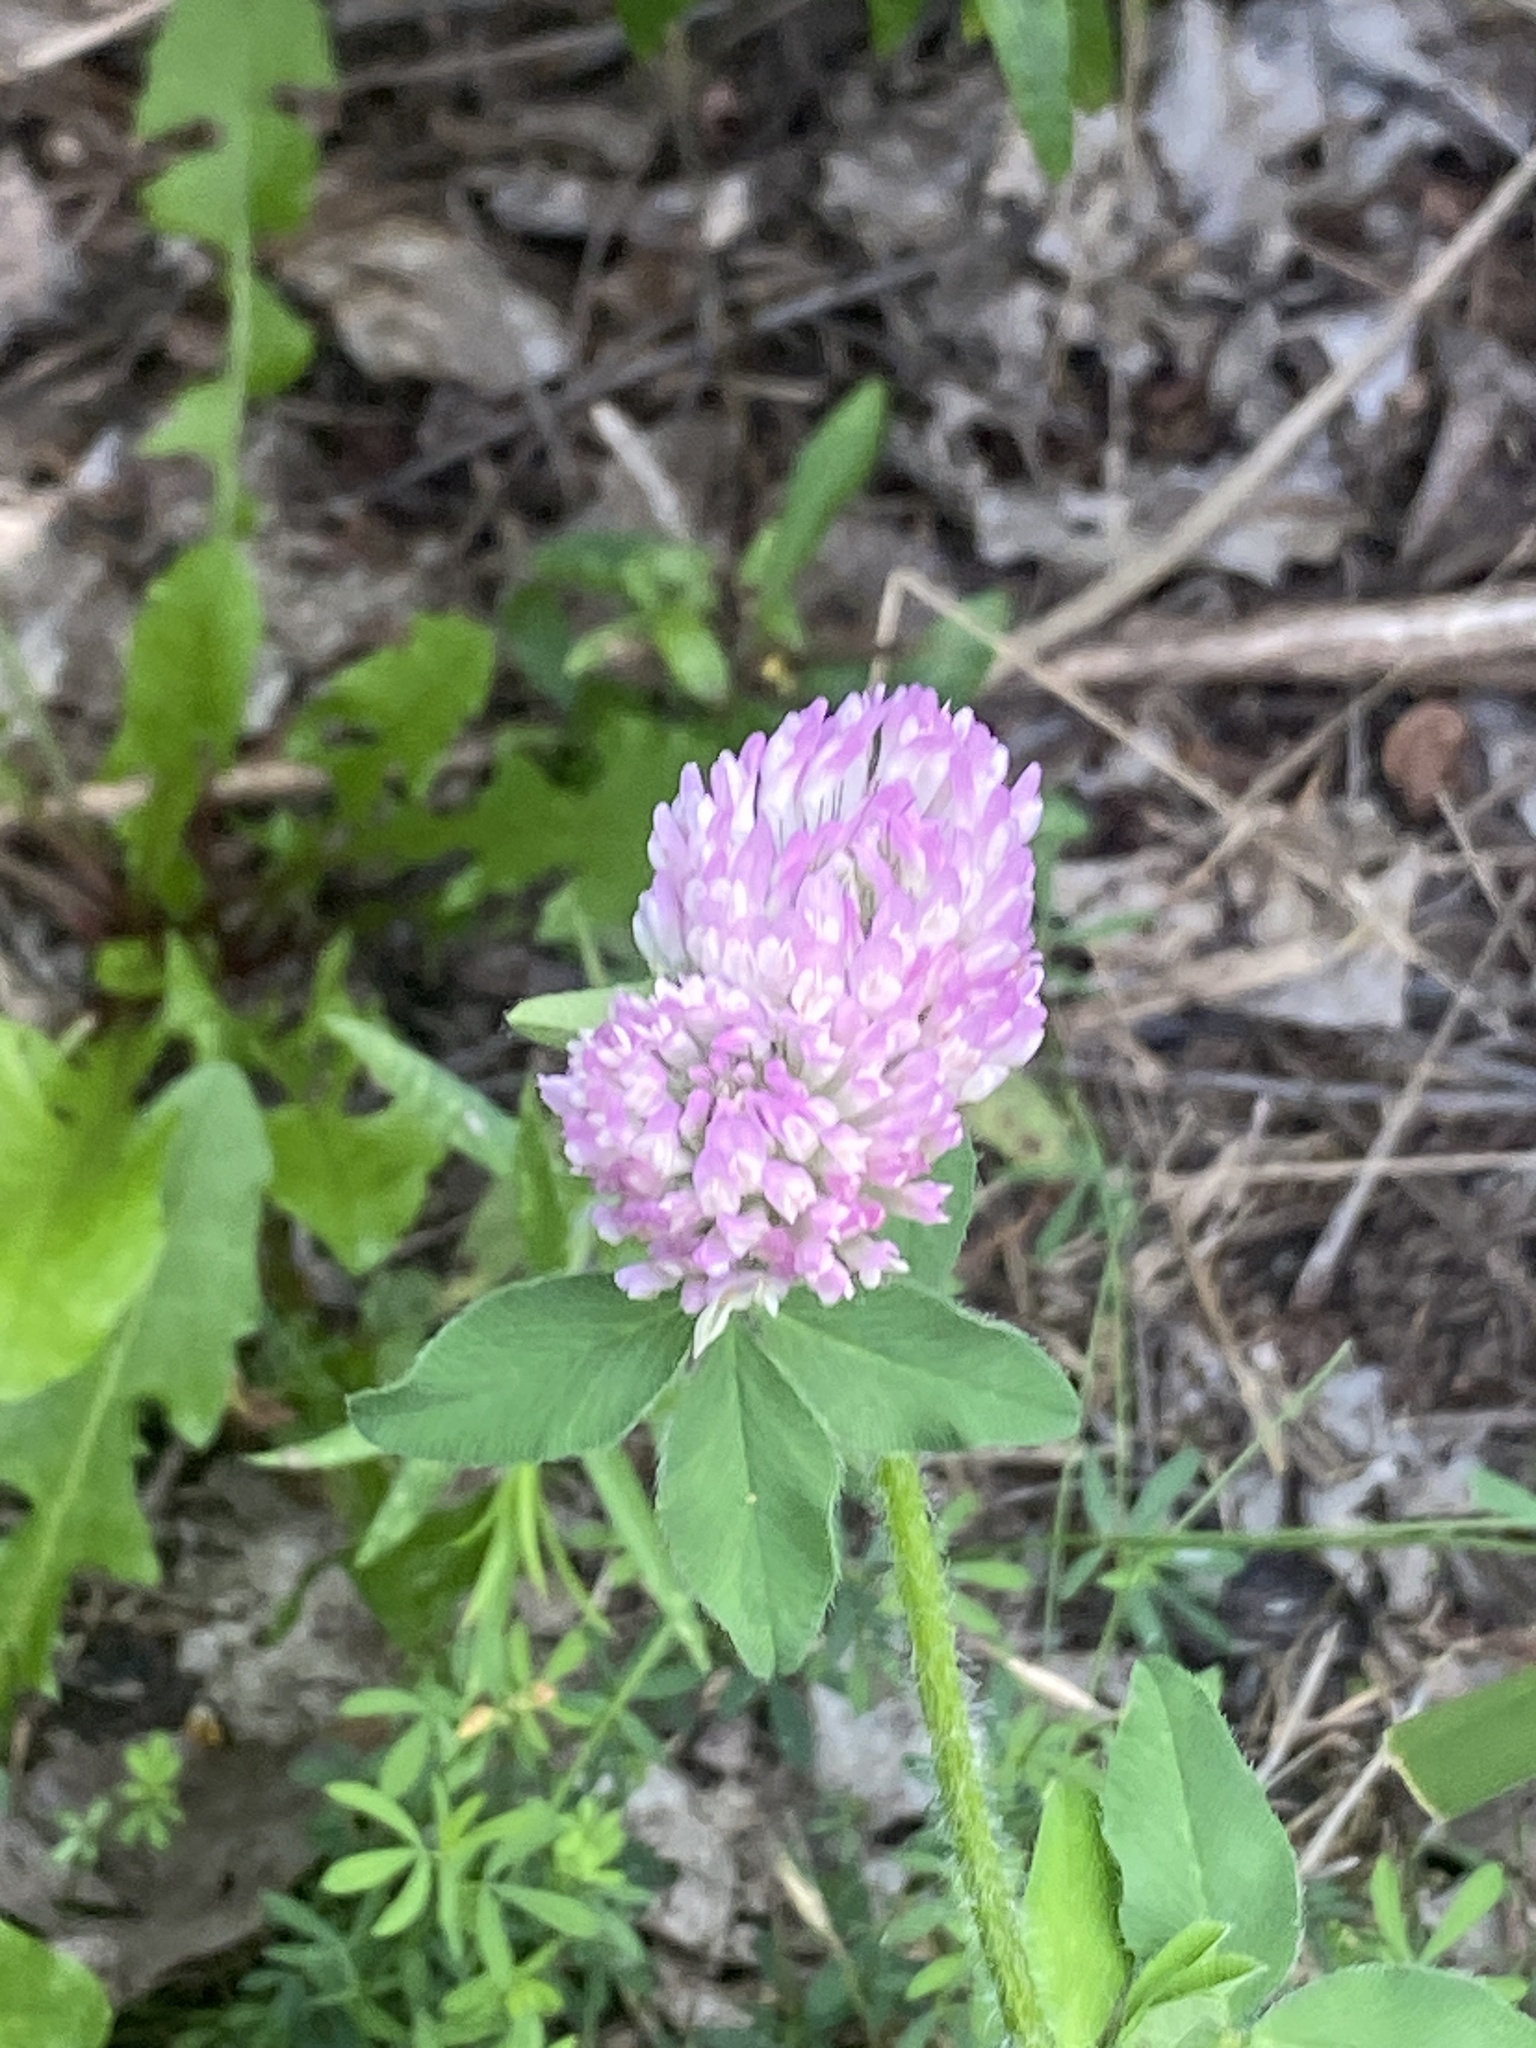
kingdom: Plantae
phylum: Tracheophyta
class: Magnoliopsida
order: Fabales
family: Fabaceae
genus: Trifolium
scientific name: Trifolium pratense
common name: Red clover
